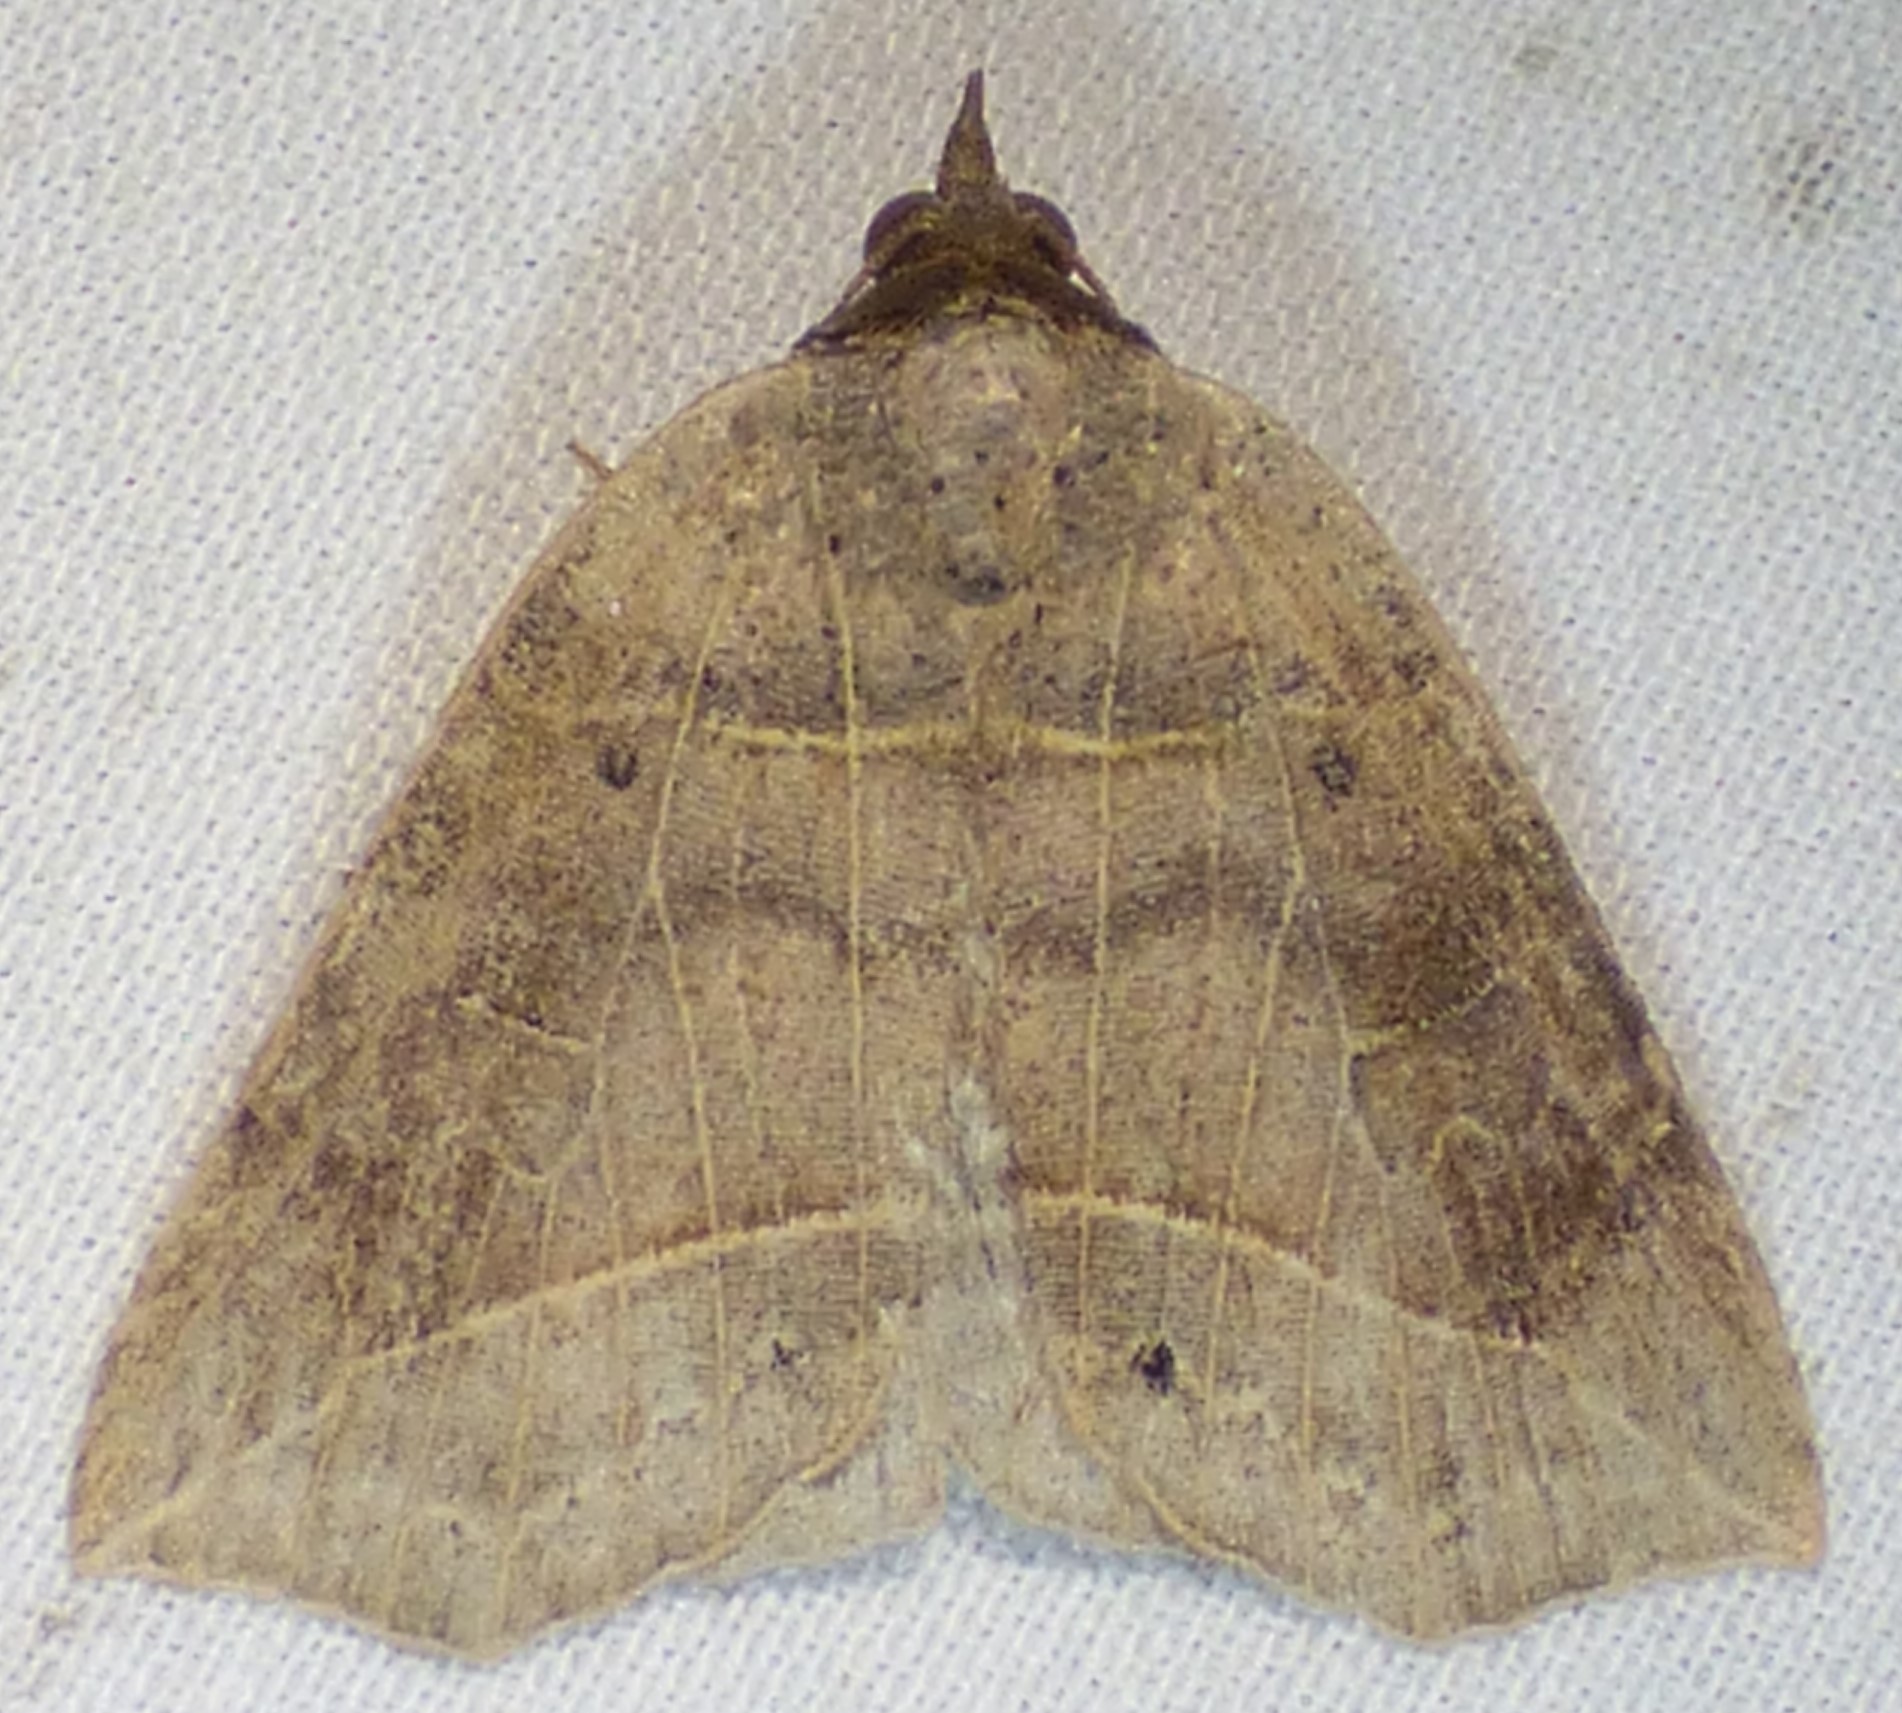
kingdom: Animalia
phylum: Arthropoda
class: Insecta
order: Lepidoptera
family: Erebidae
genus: Isogona
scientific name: Isogona tenuis
